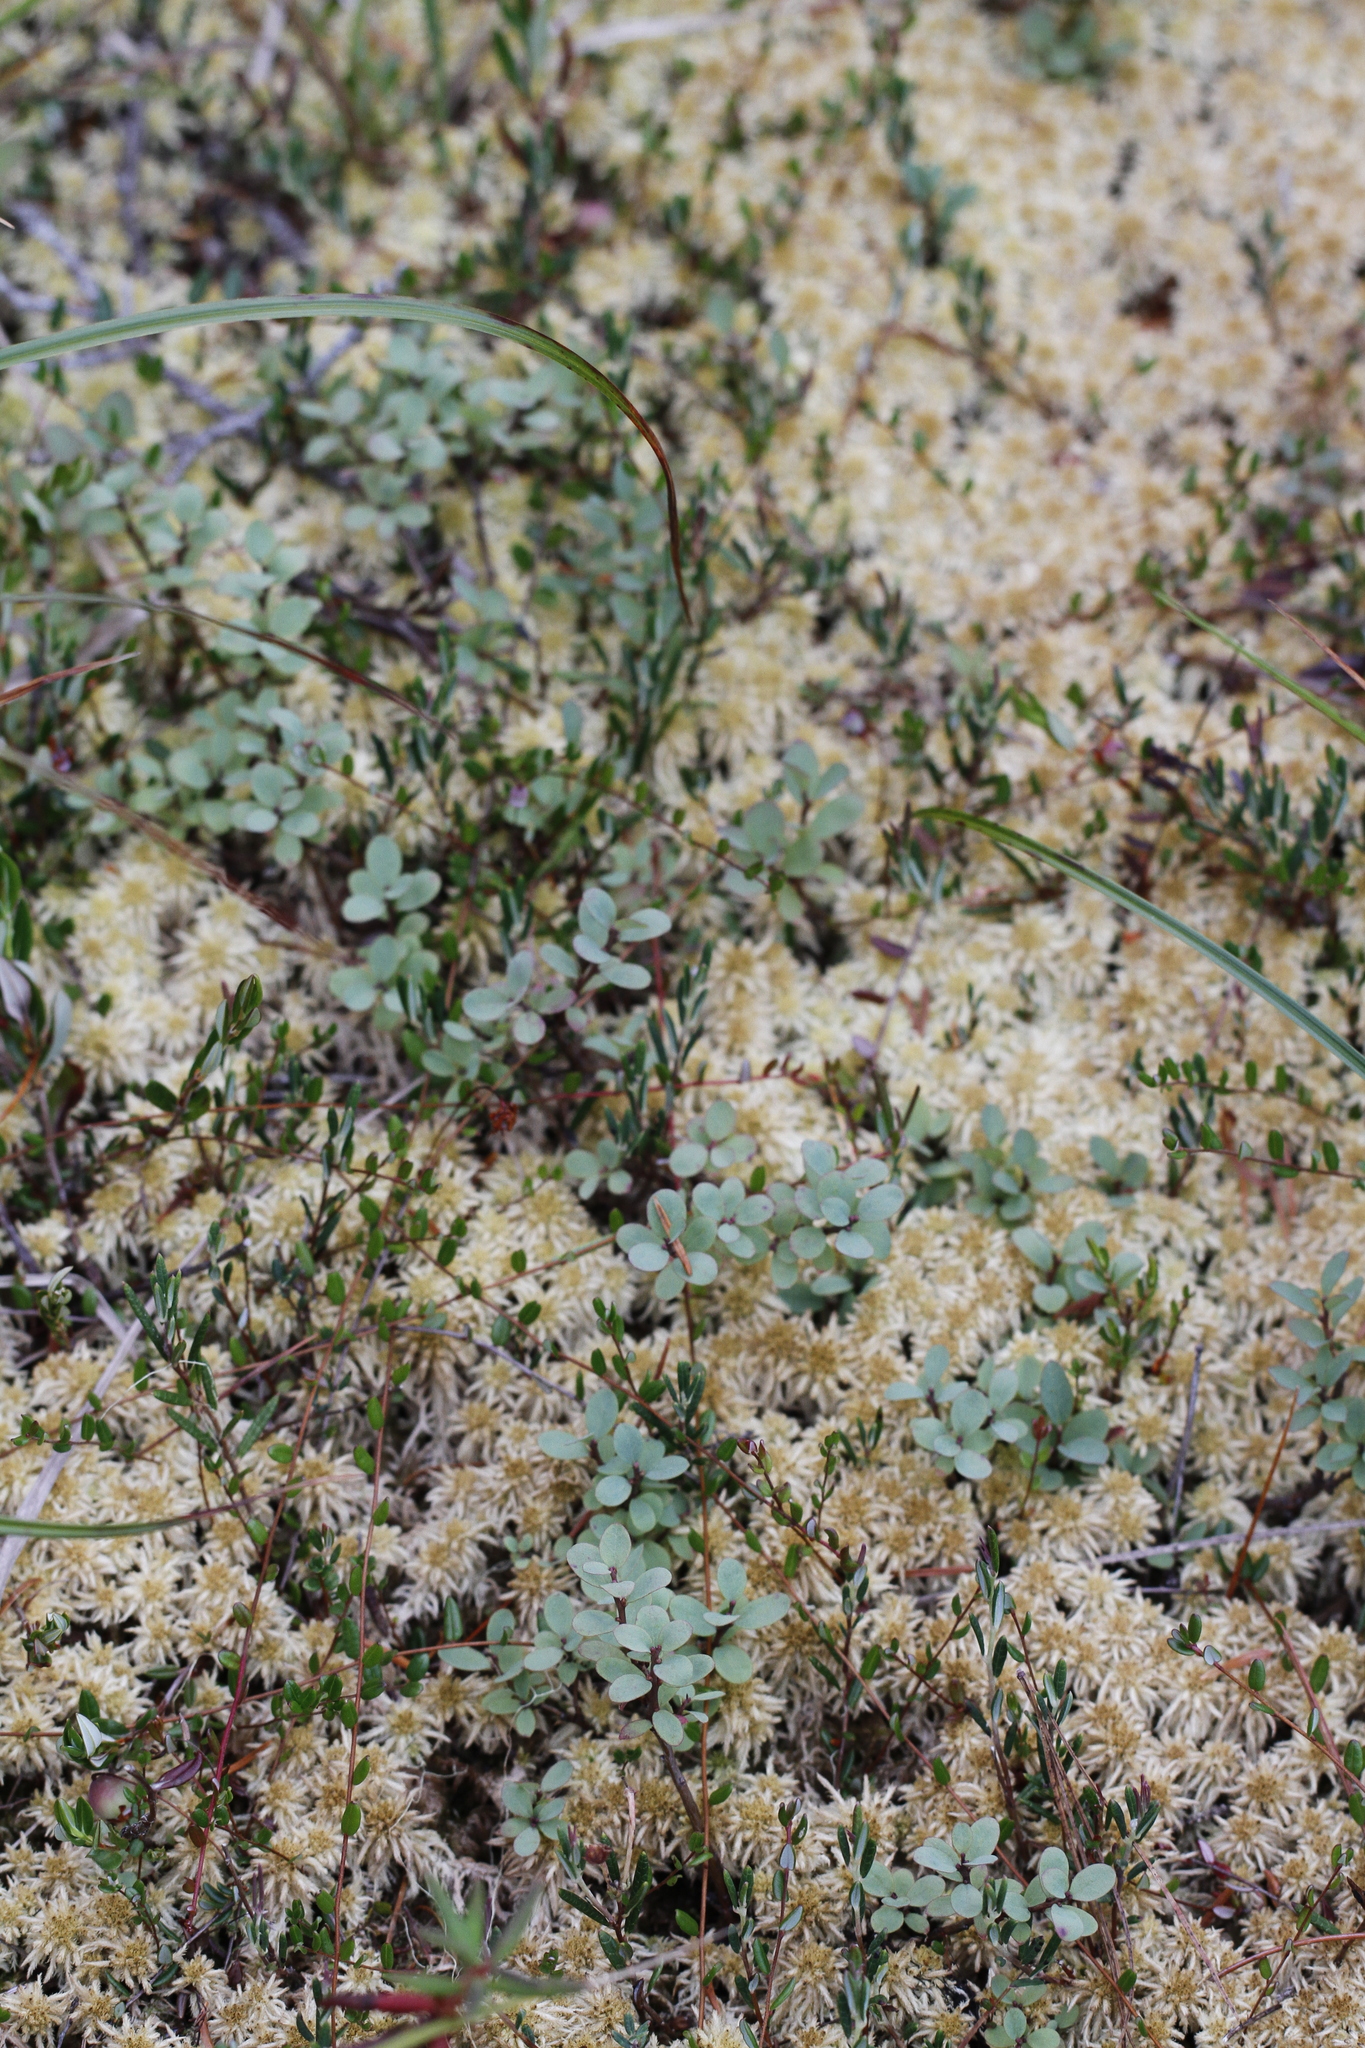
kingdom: Plantae
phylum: Tracheophyta
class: Magnoliopsida
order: Ericales
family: Ericaceae
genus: Vaccinium
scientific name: Vaccinium uliginosum
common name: Bog bilberry
